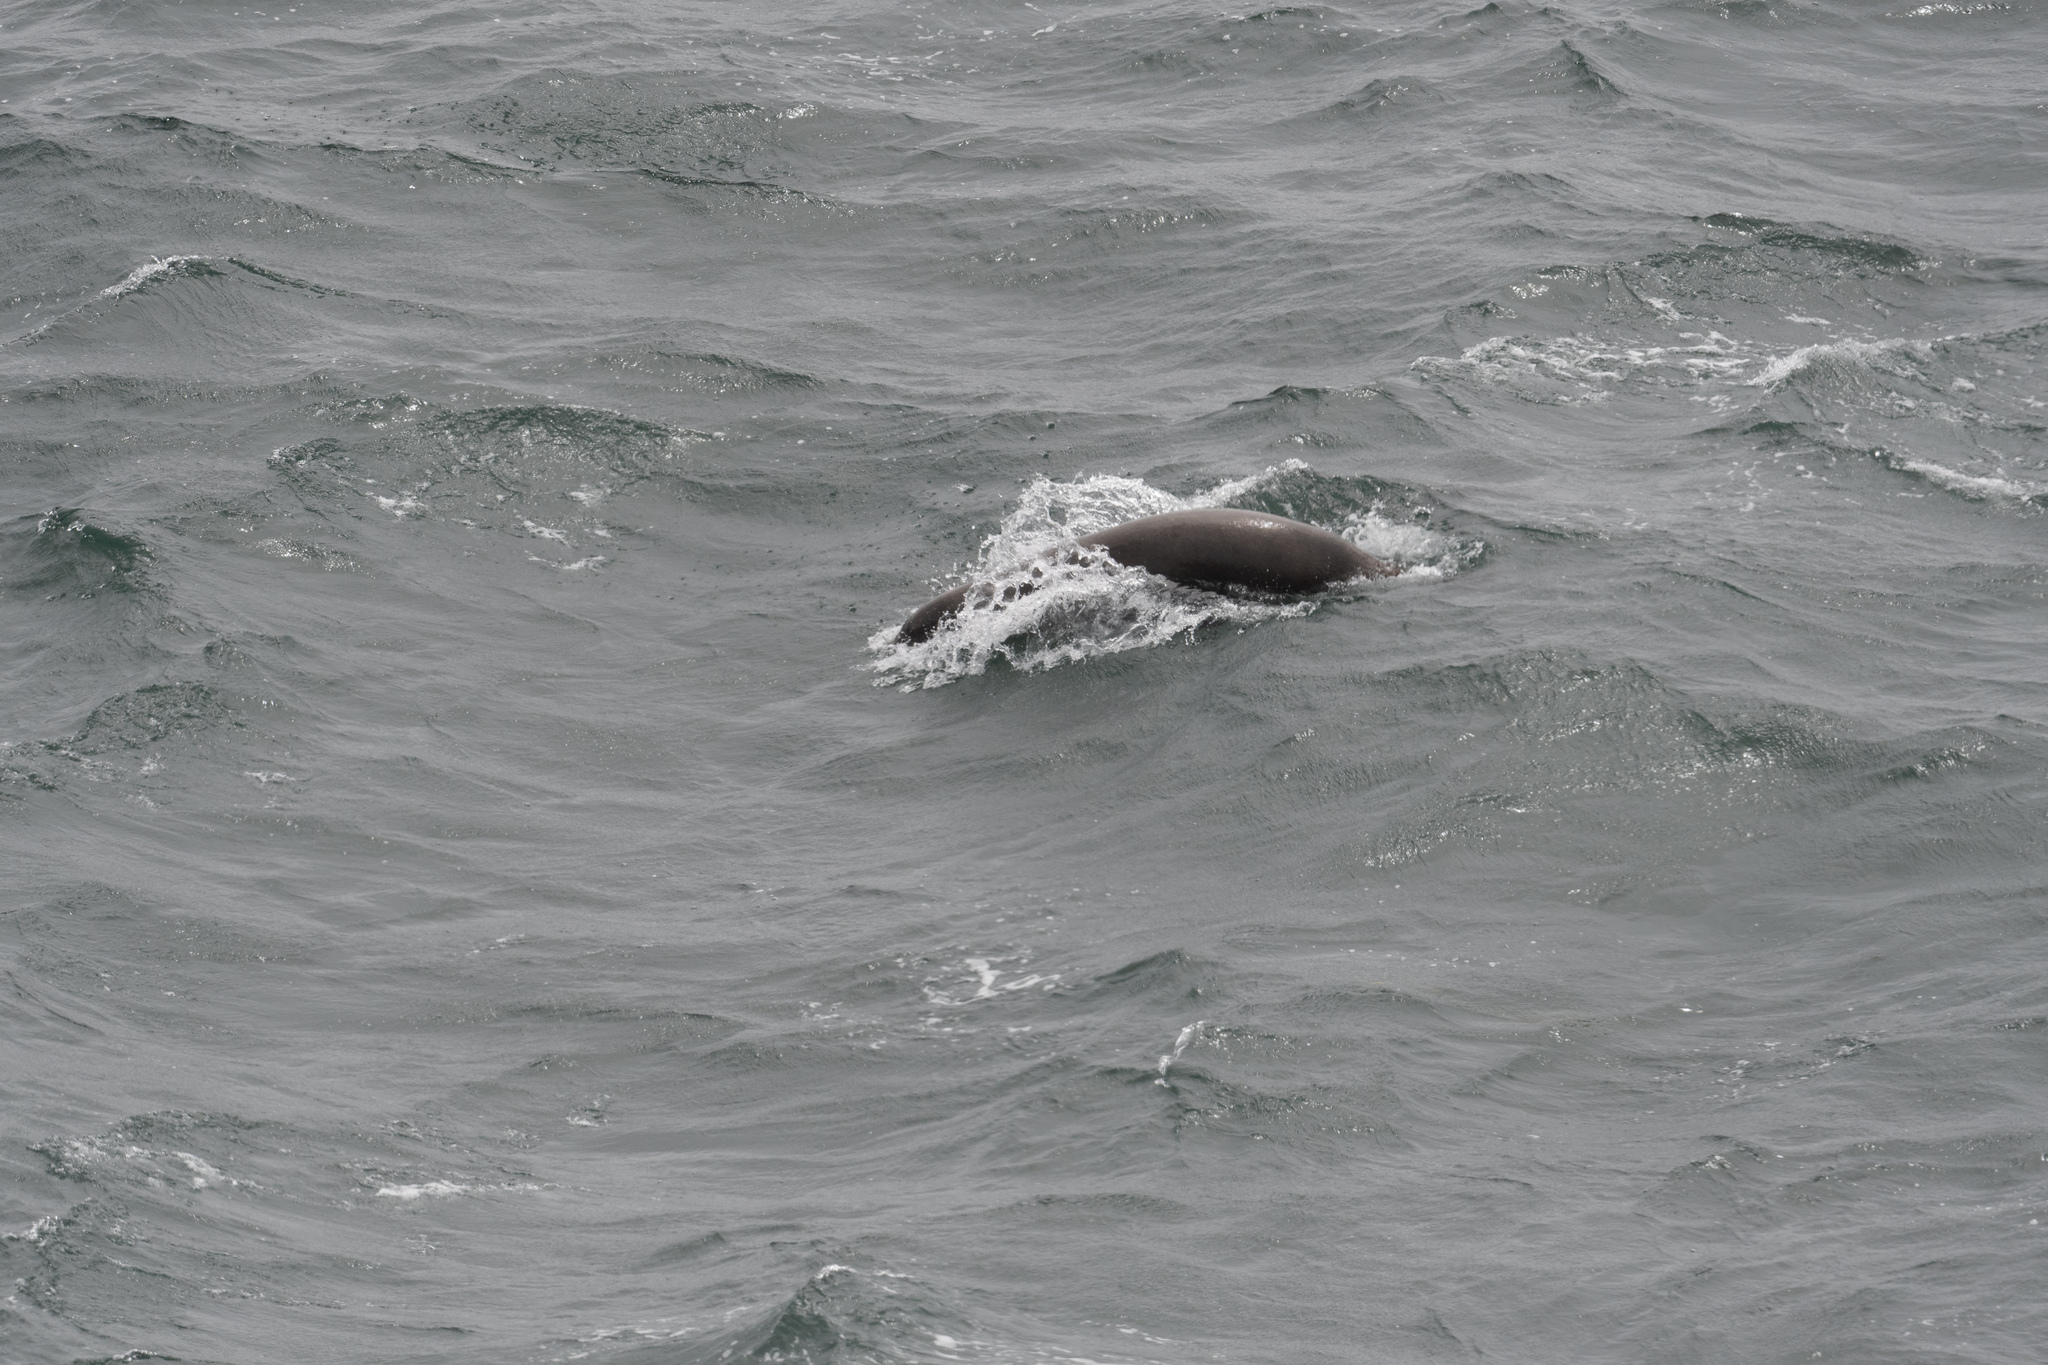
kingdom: Animalia
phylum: Chordata
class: Mammalia
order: Carnivora
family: Otariidae
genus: Zalophus
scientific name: Zalophus californianus
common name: California sea lion
